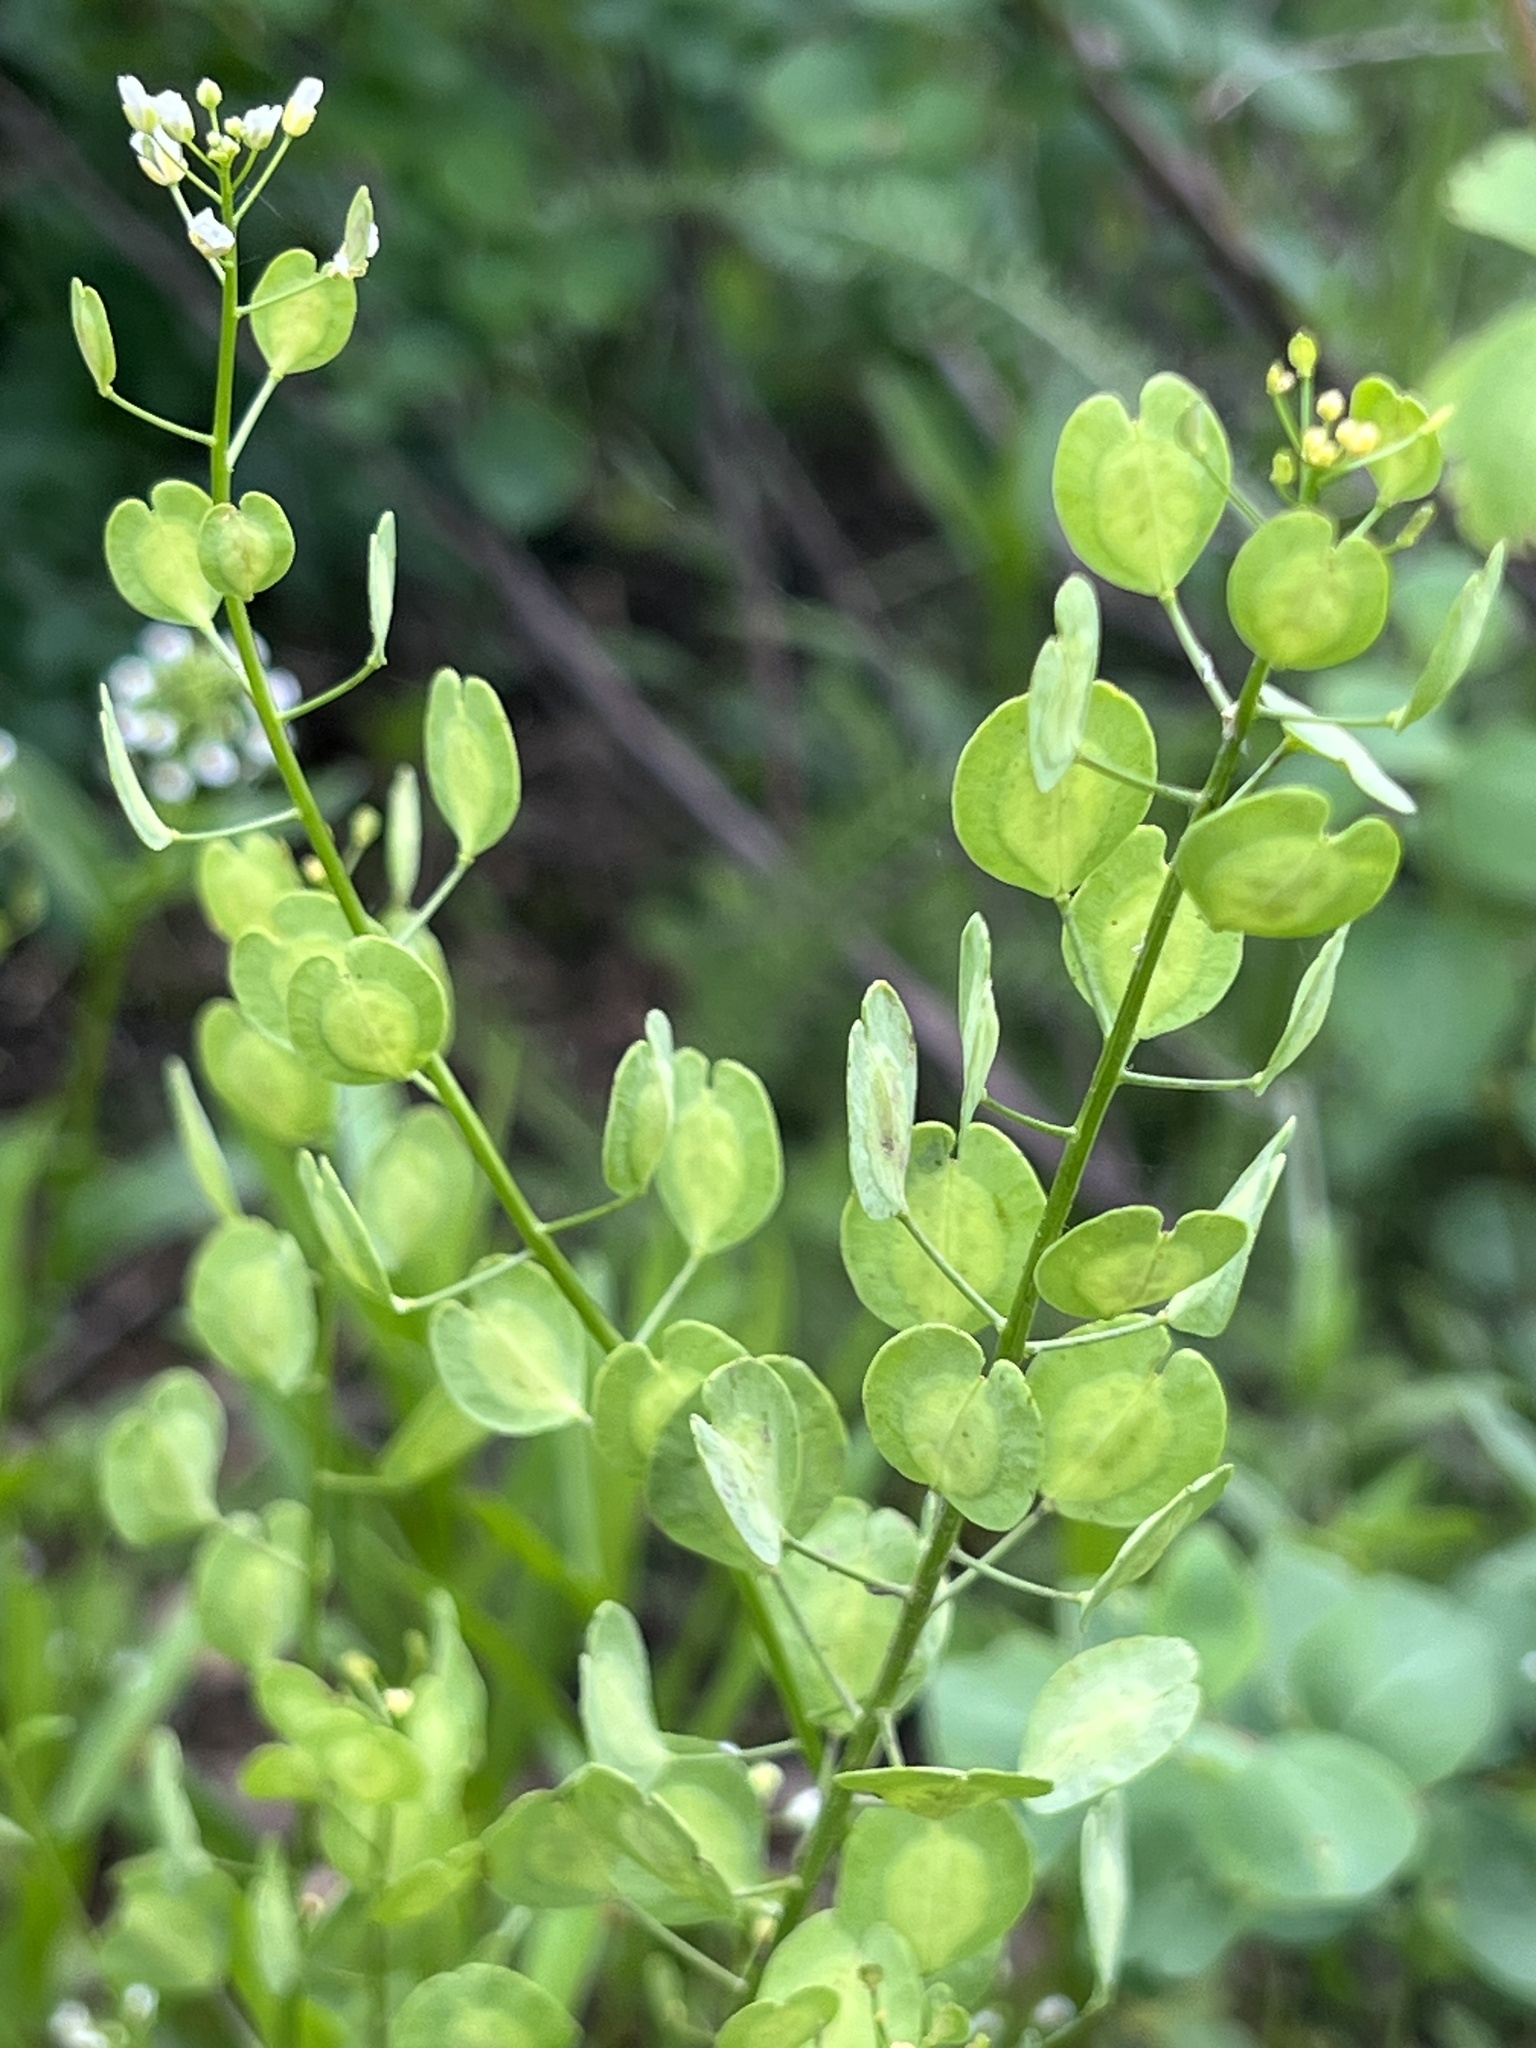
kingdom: Plantae
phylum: Tracheophyta
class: Magnoliopsida
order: Brassicales
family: Brassicaceae
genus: Thlaspi
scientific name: Thlaspi arvense
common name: Field pennycress
